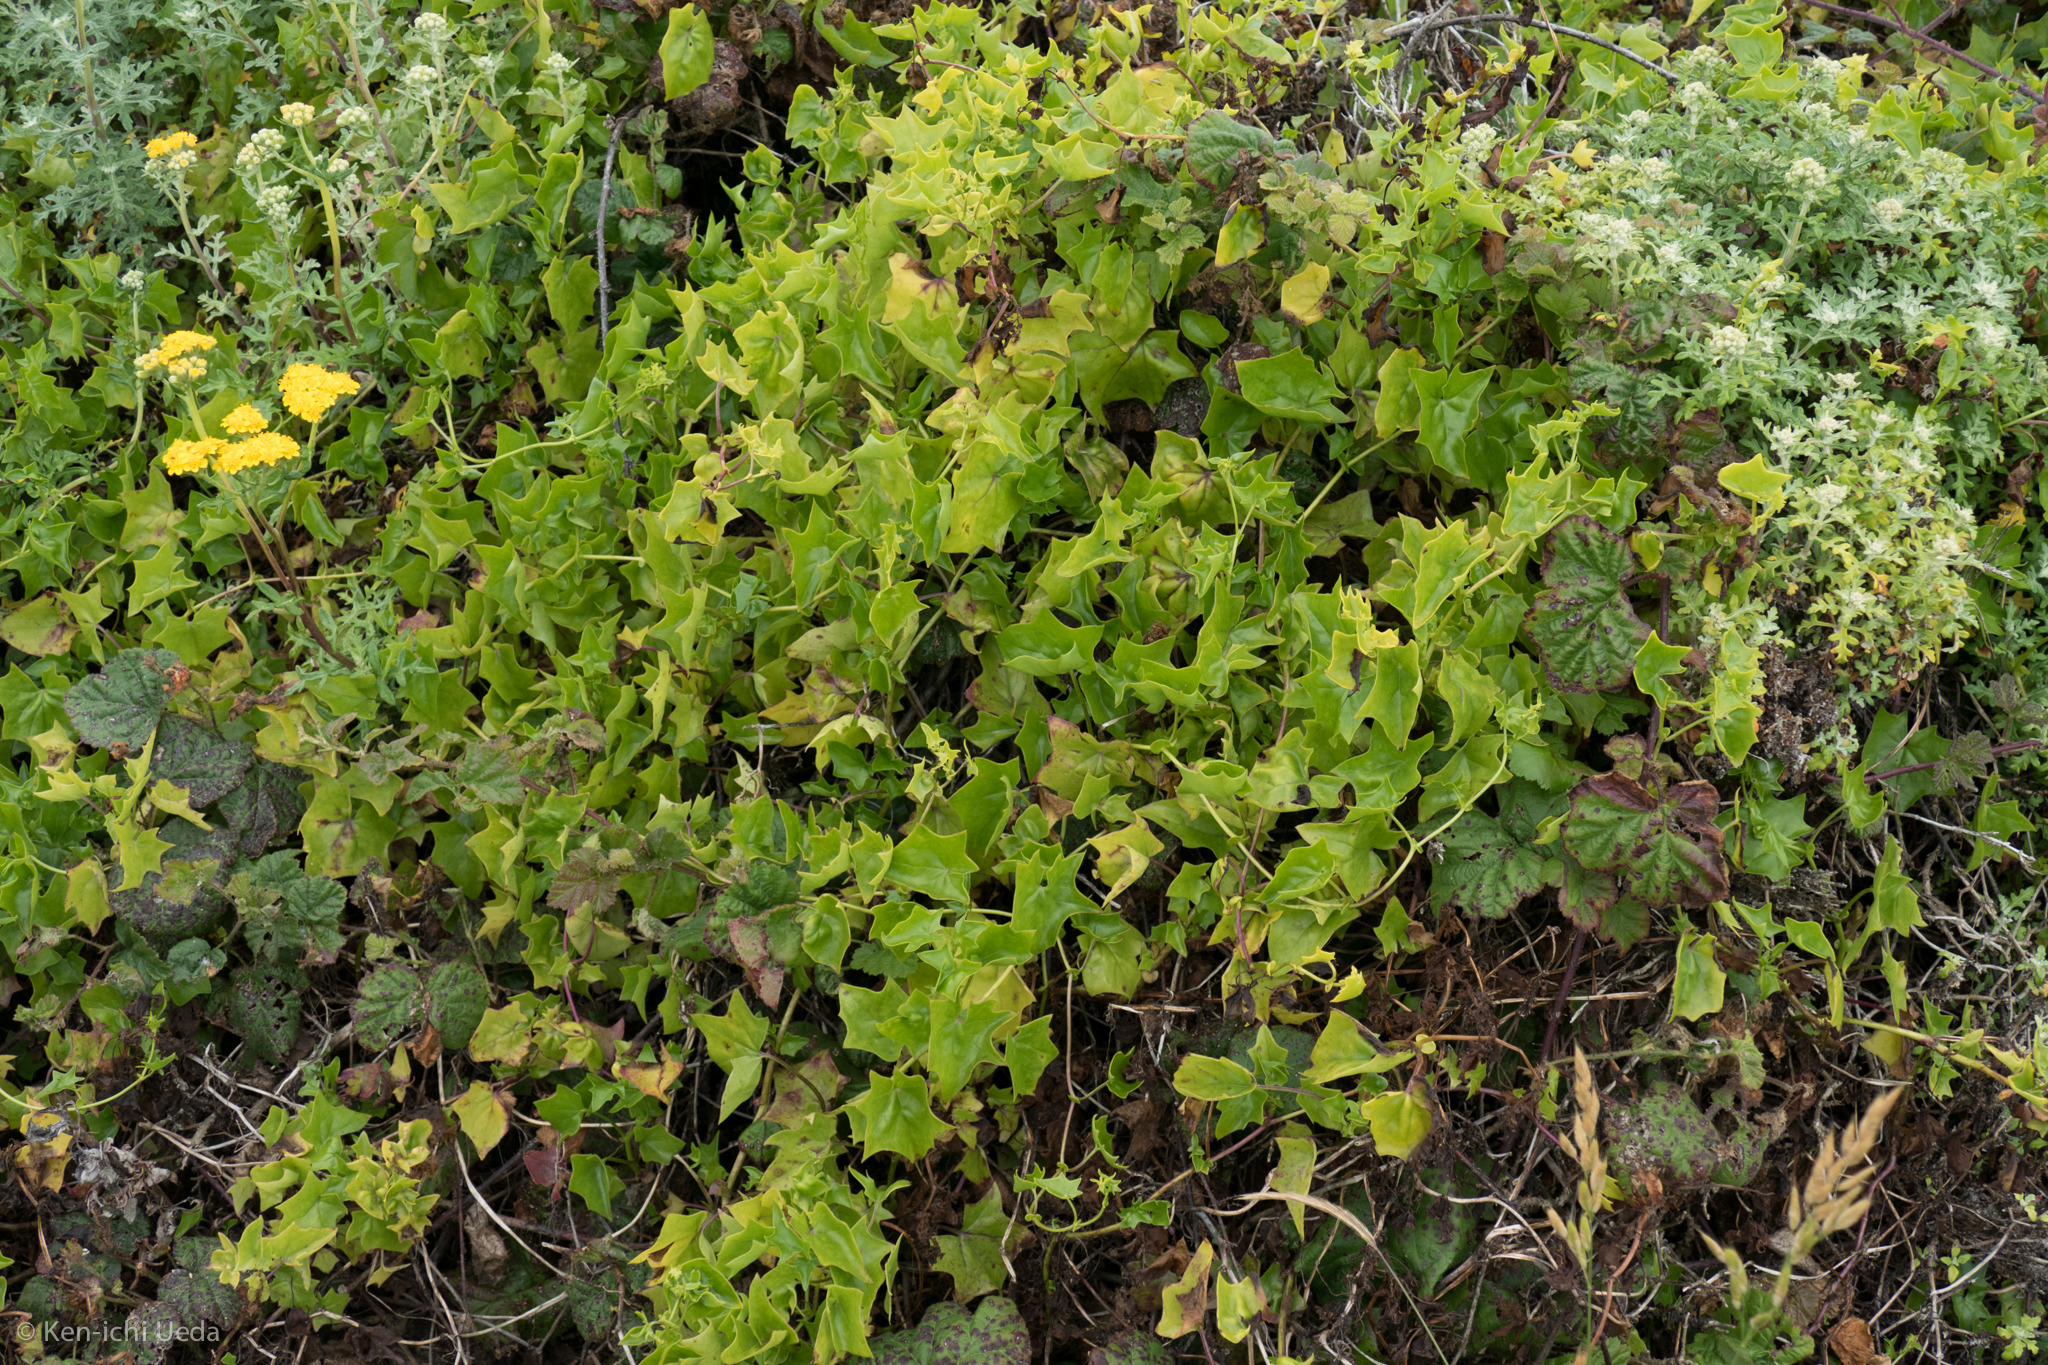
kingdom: Plantae
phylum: Tracheophyta
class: Magnoliopsida
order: Asterales
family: Asteraceae
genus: Delairea
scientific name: Delairea odorata
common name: Cape-ivy
